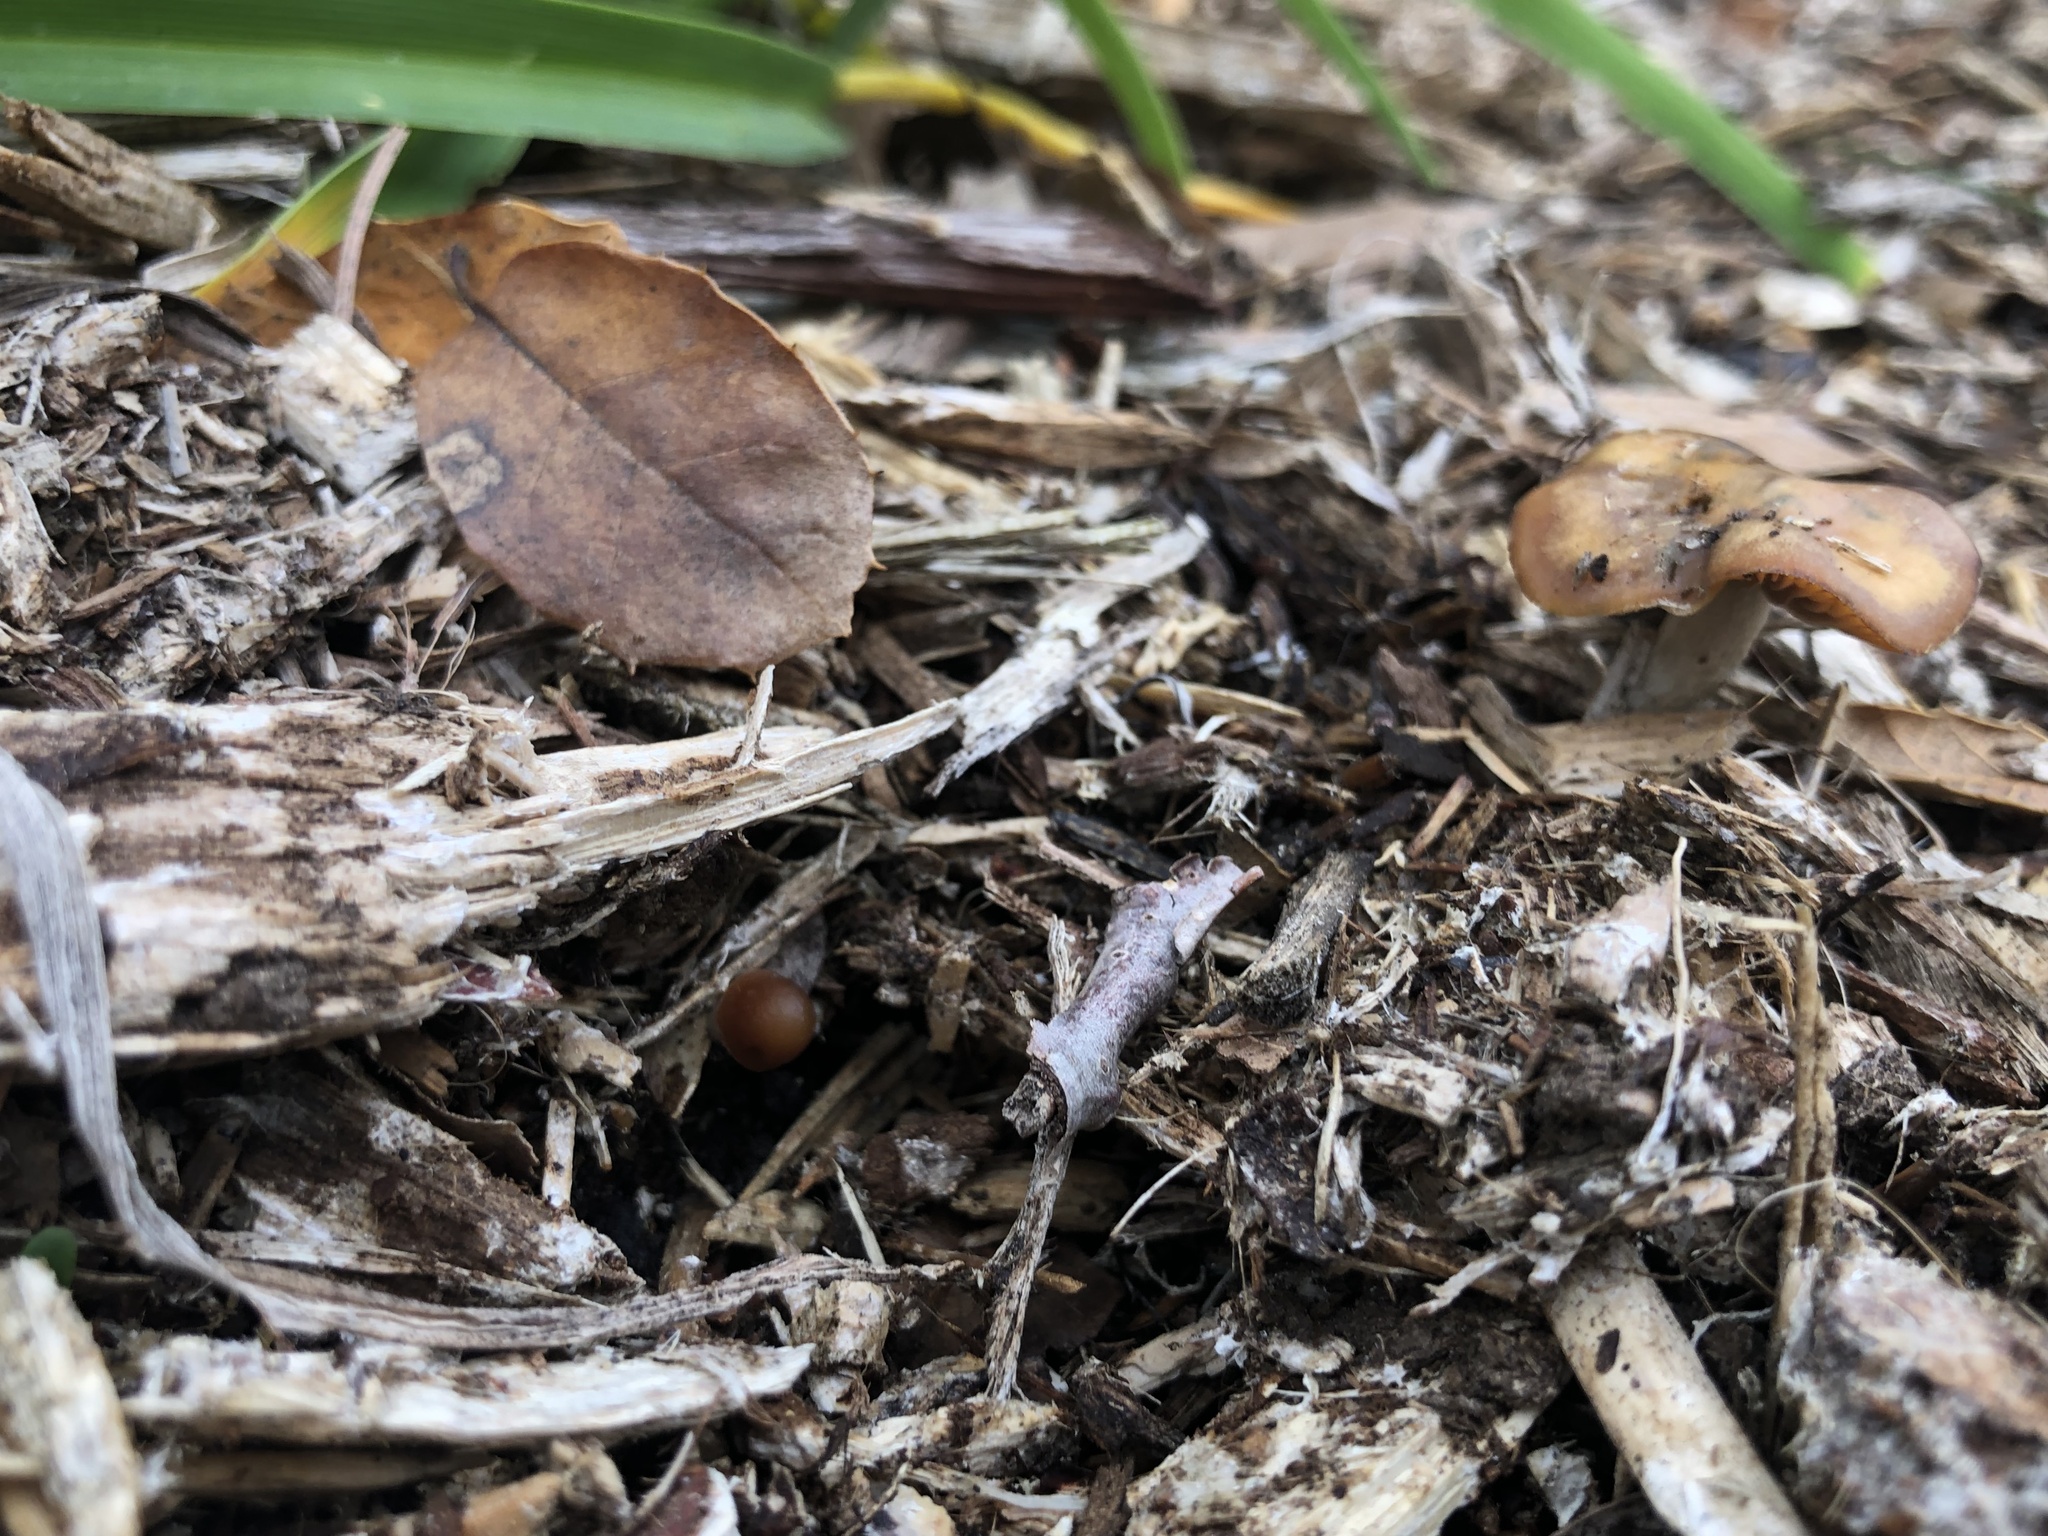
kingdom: Fungi
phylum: Basidiomycota
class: Agaricomycetes
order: Agaricales
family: Hymenogastraceae
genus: Psilocybe
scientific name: Psilocybe cyanescens
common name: Blueleg brownie
